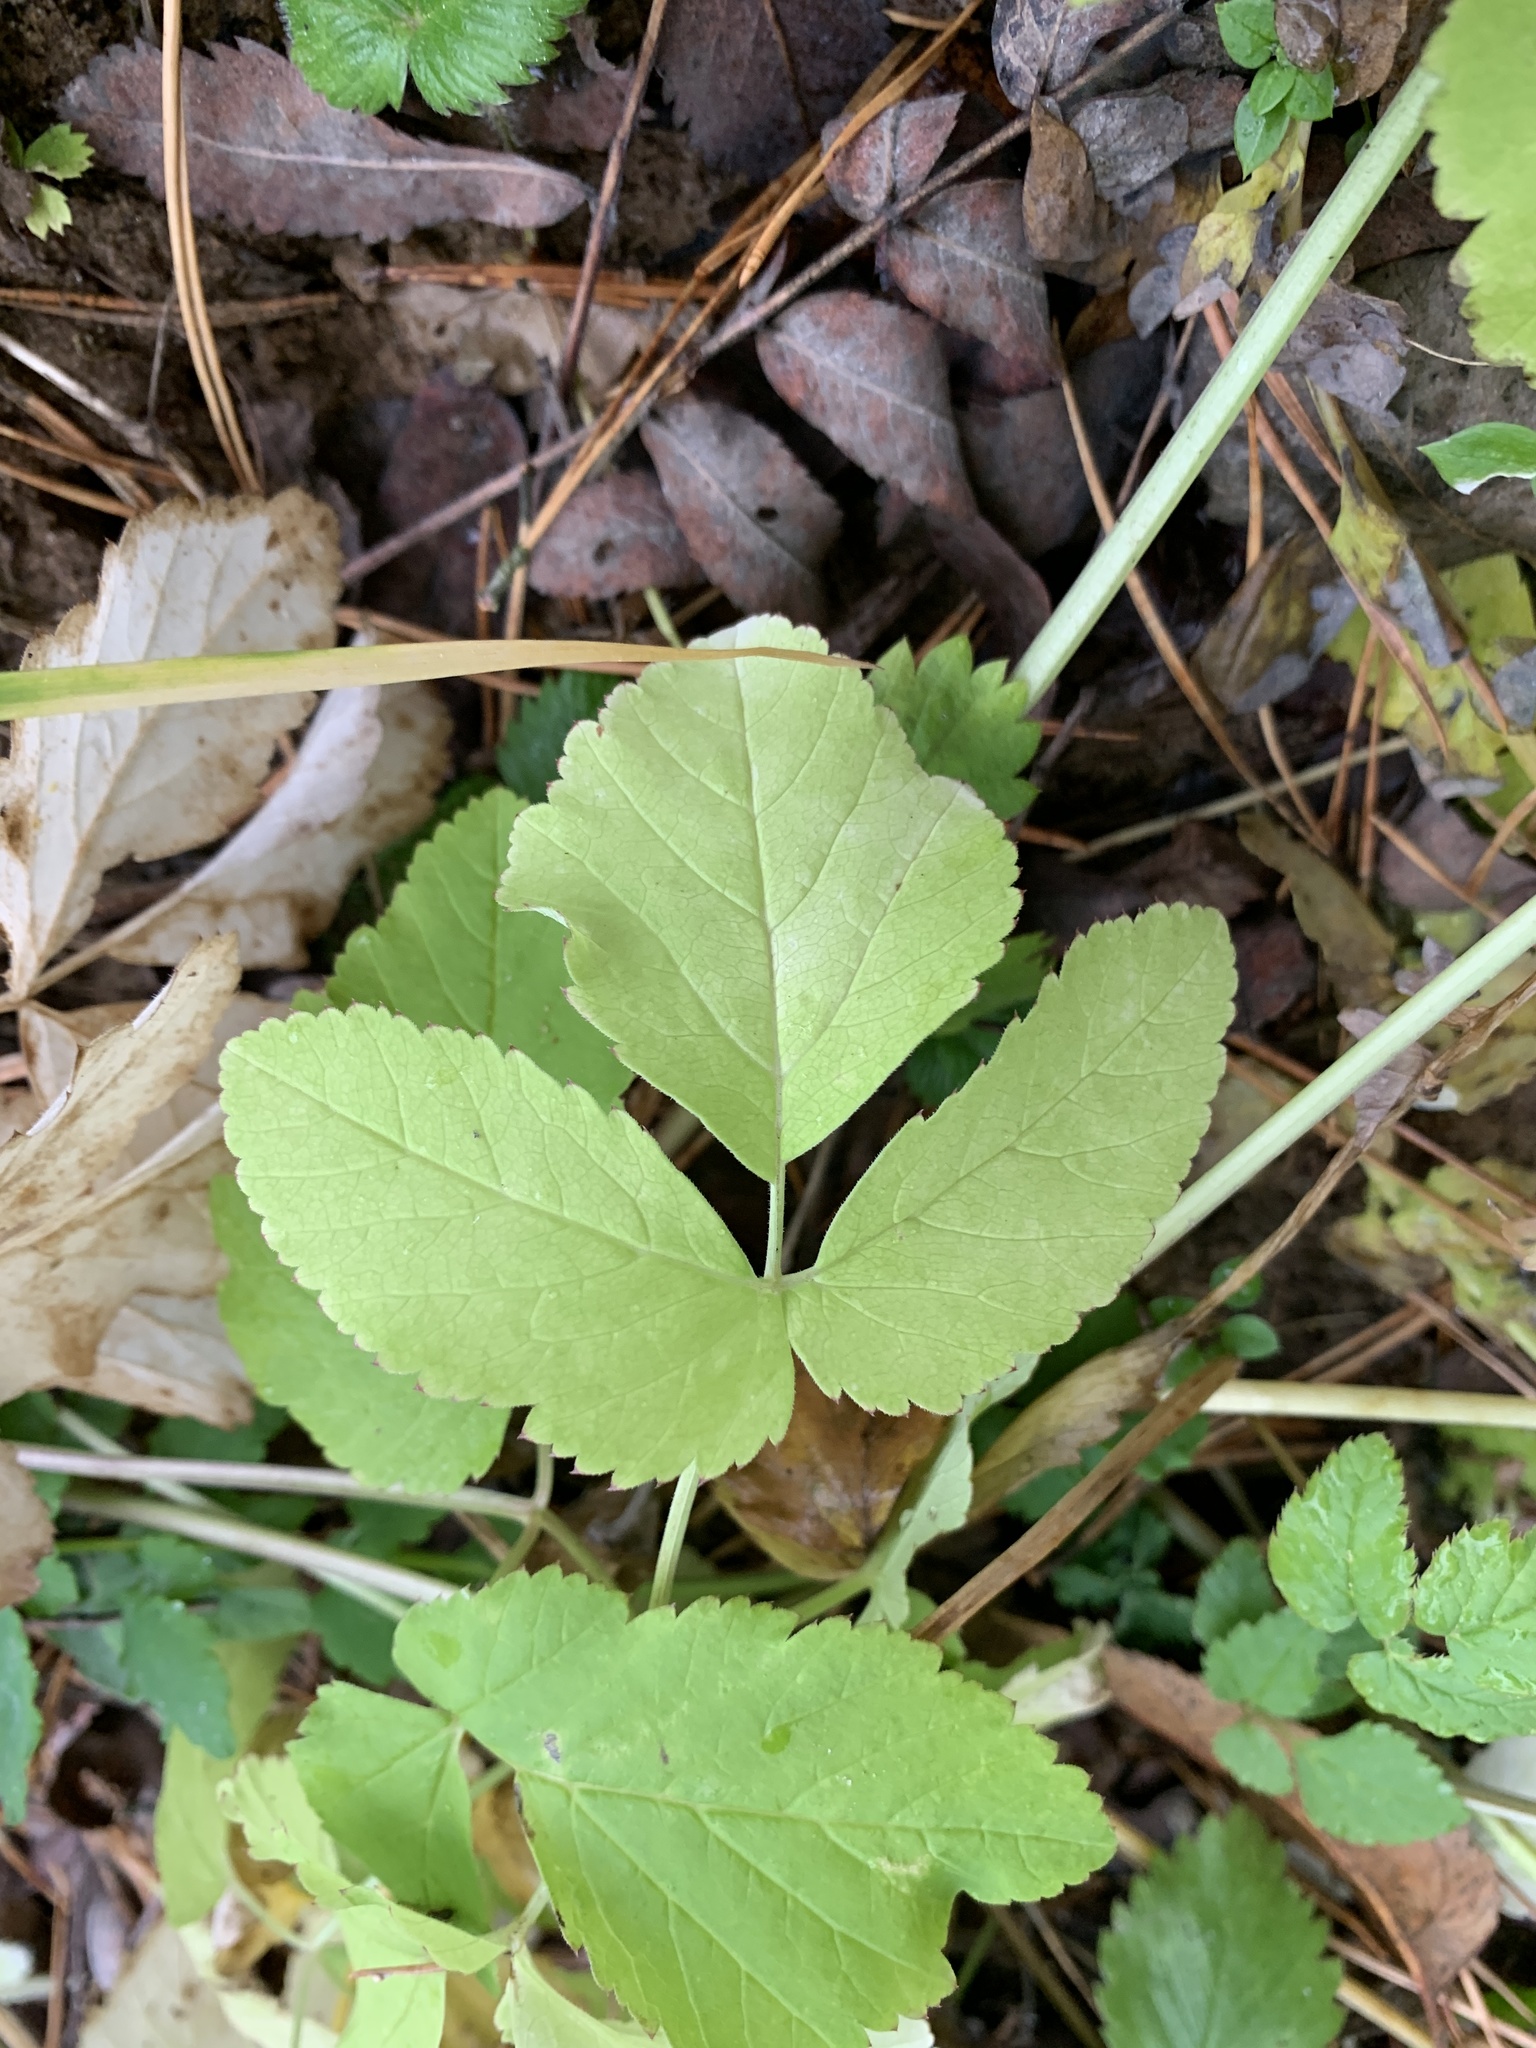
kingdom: Plantae
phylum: Tracheophyta
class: Magnoliopsida
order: Apiales
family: Apiaceae
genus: Aegopodium
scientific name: Aegopodium podagraria
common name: Ground-elder
